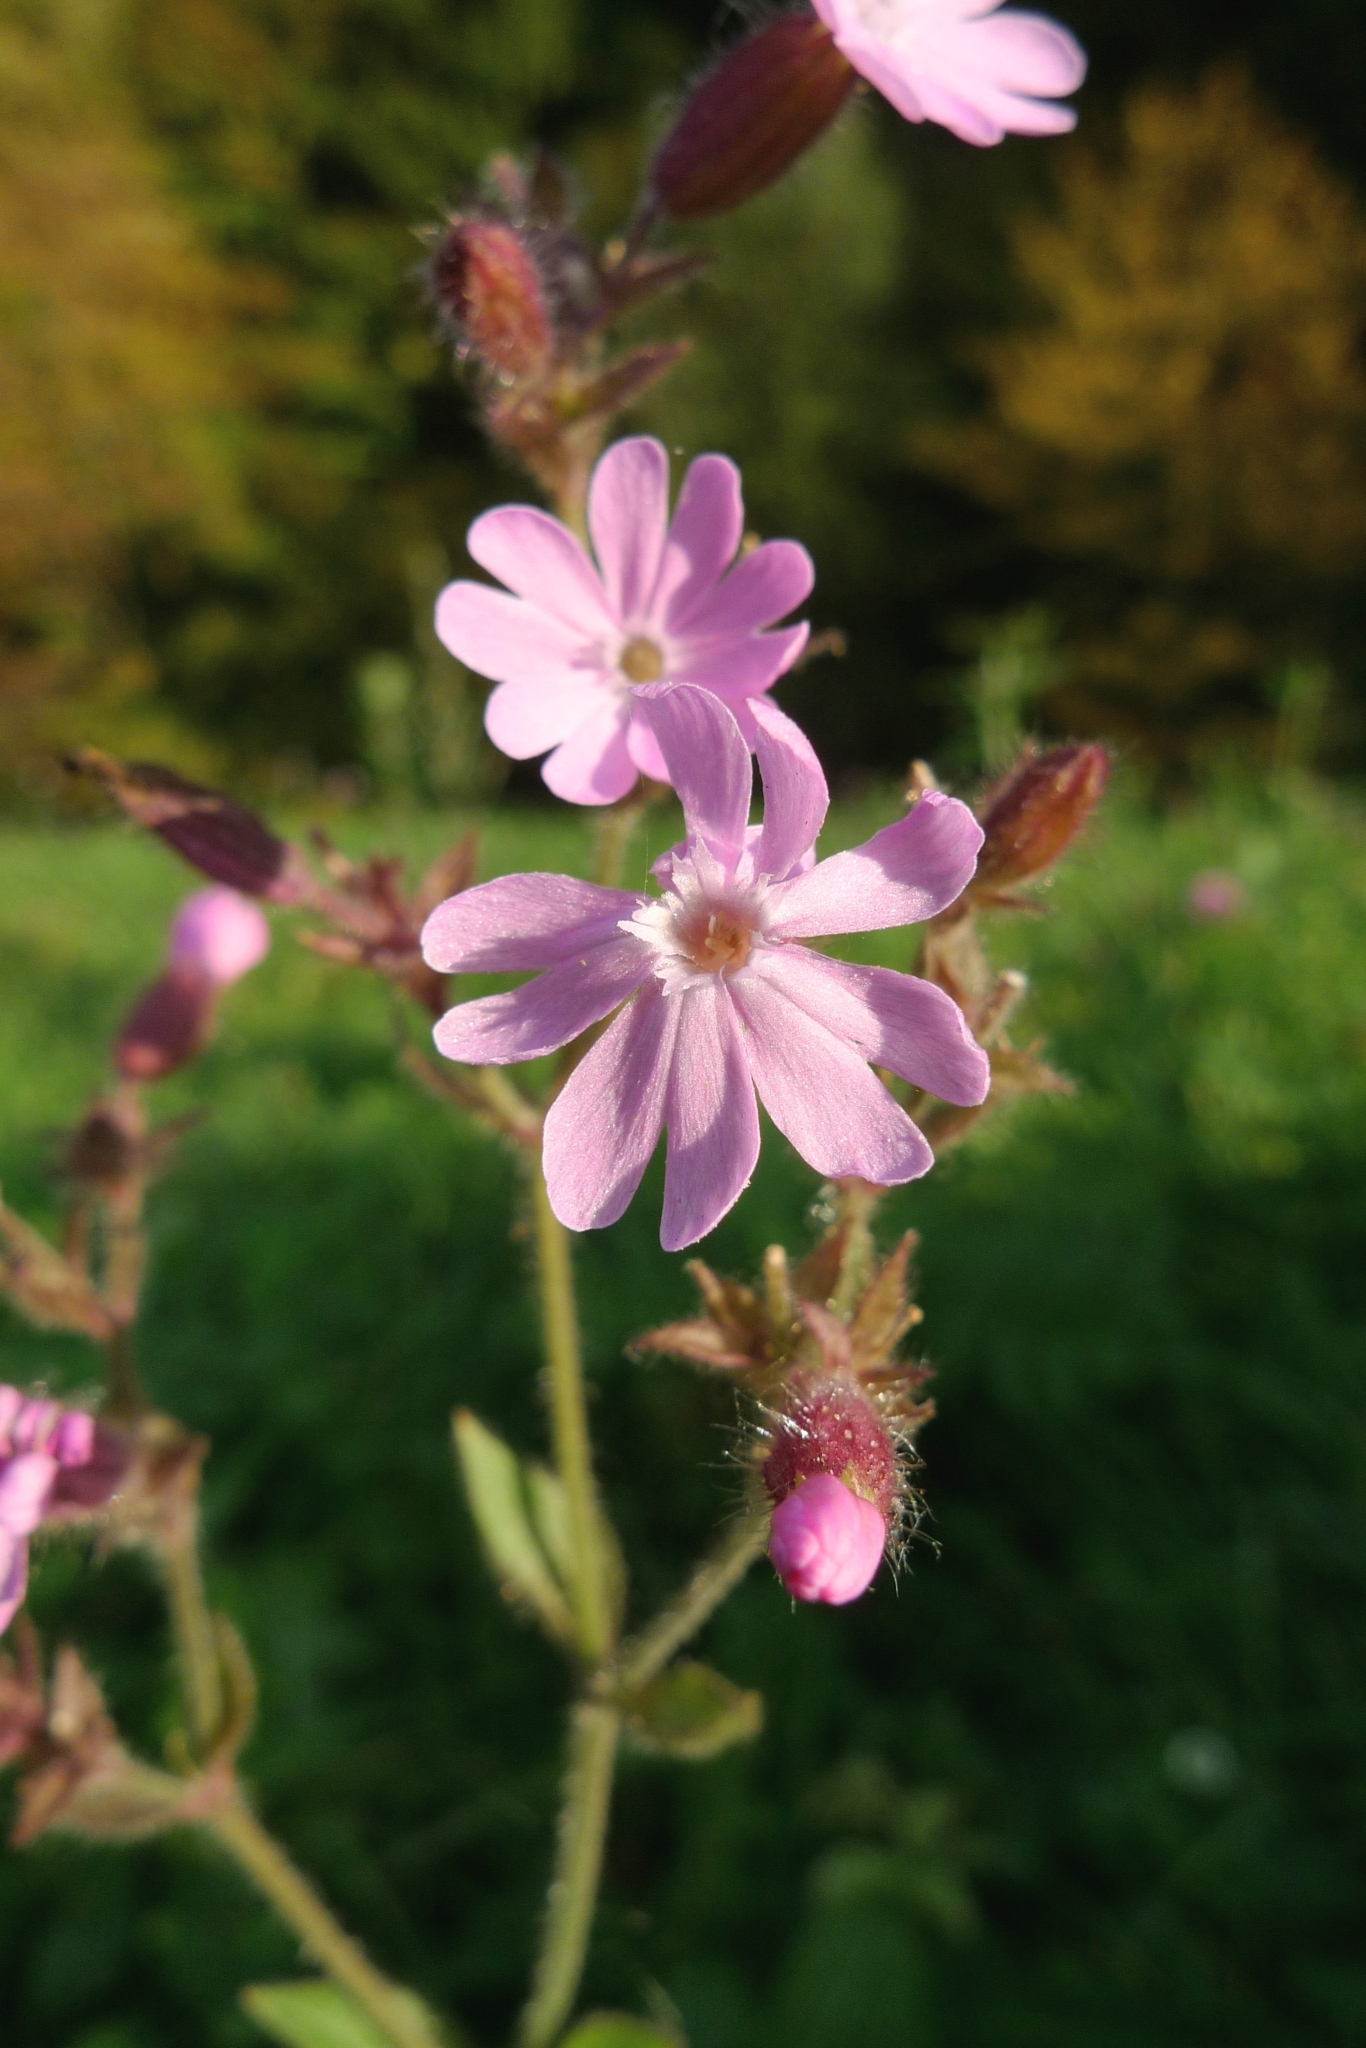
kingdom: Plantae
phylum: Tracheophyta
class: Magnoliopsida
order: Caryophyllales
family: Caryophyllaceae
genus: Silene
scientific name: Silene dioica
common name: Red campion
